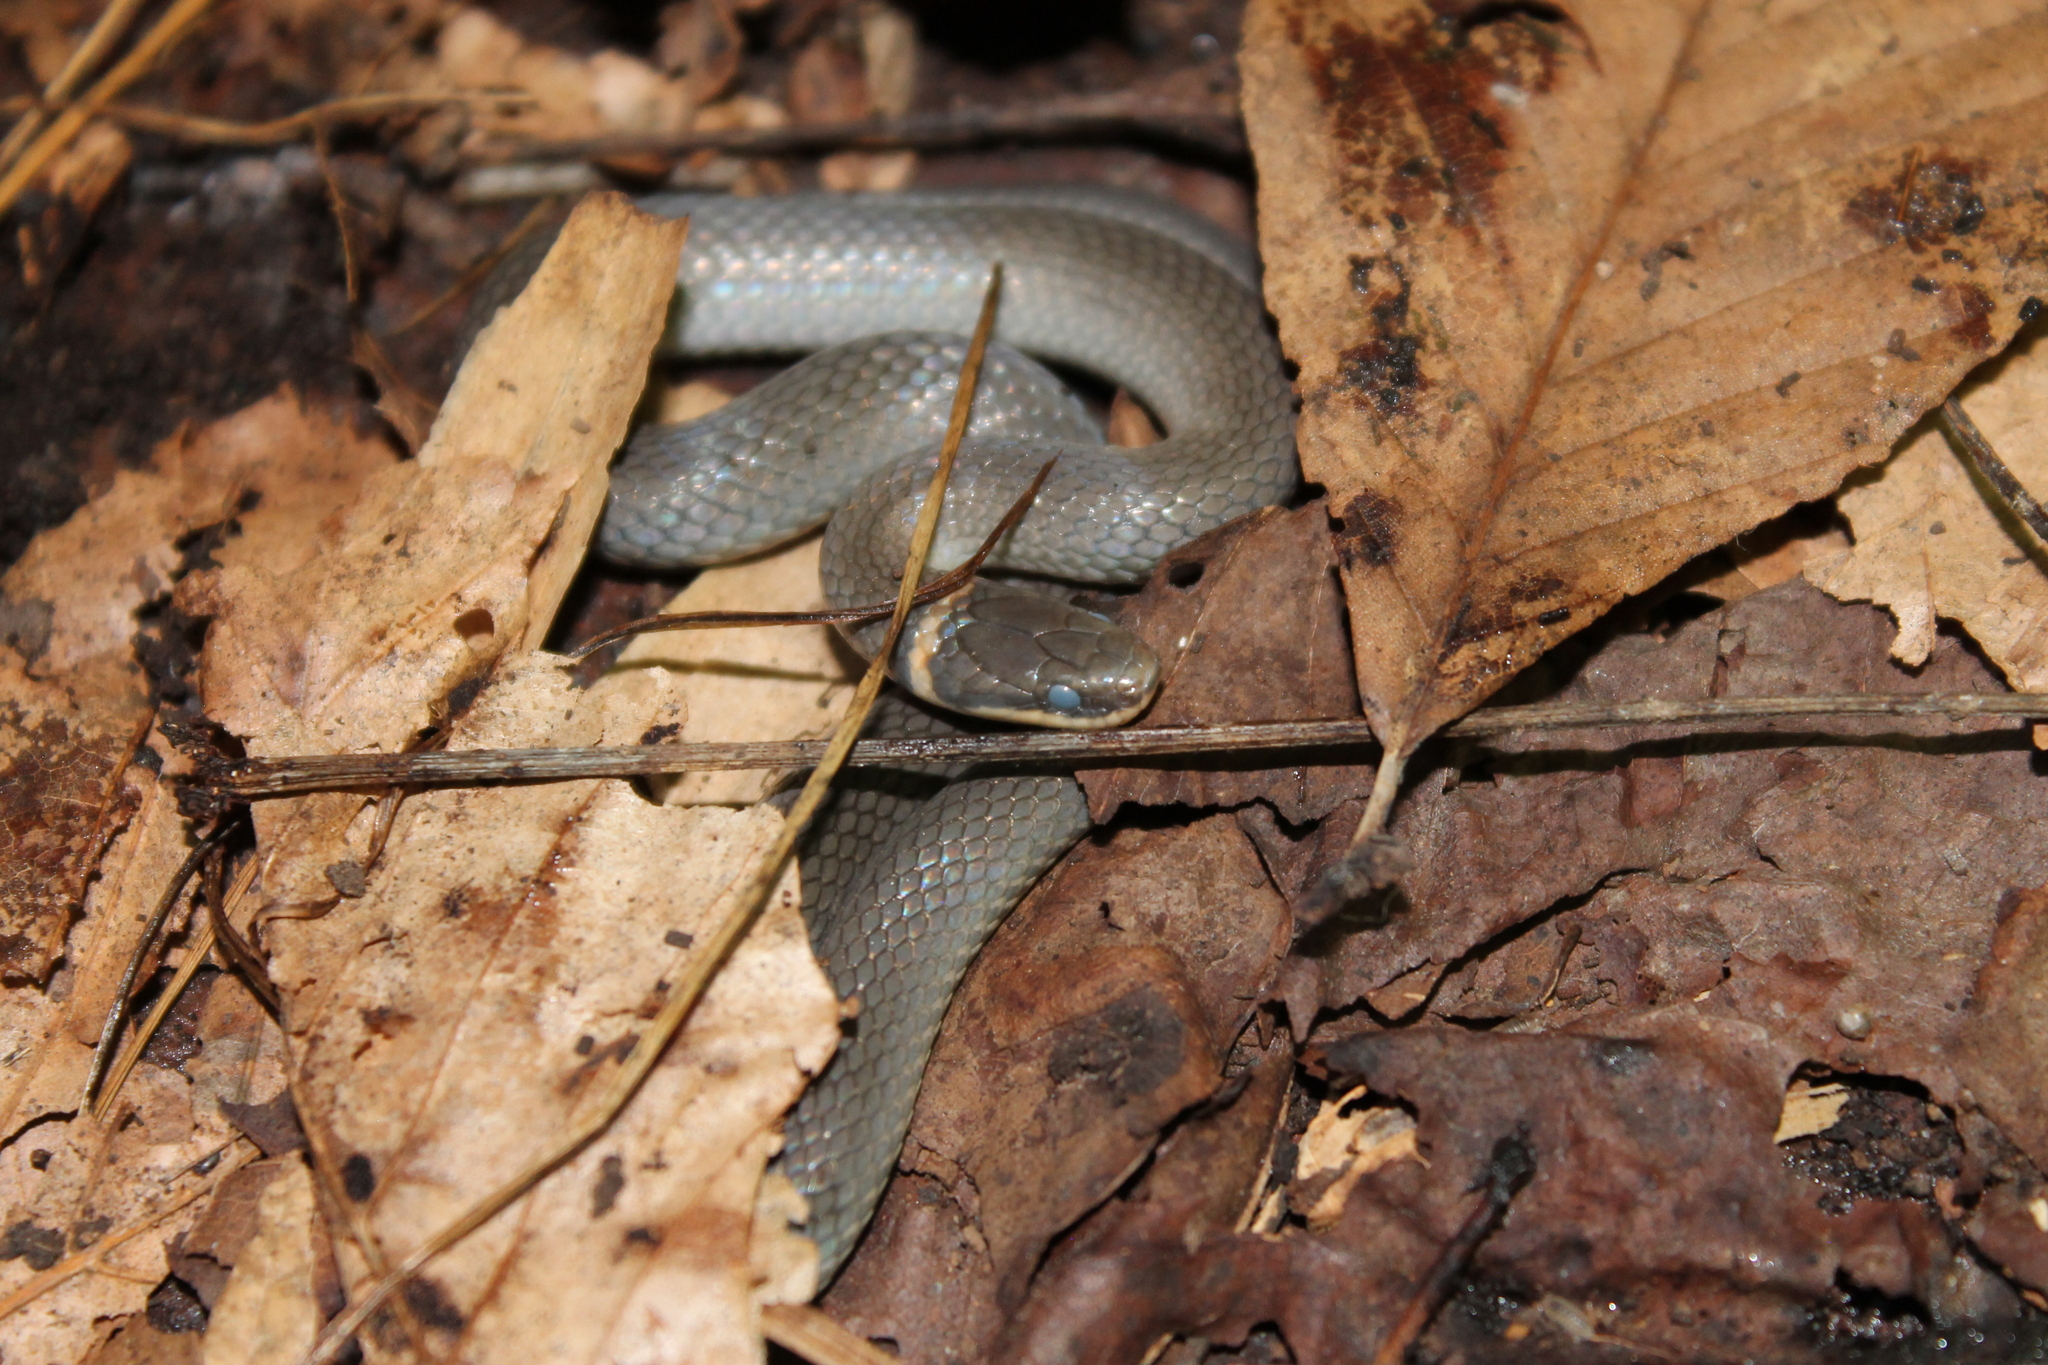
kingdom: Animalia
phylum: Chordata
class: Squamata
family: Colubridae
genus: Diadophis
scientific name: Diadophis punctatus
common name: Ringneck snake
